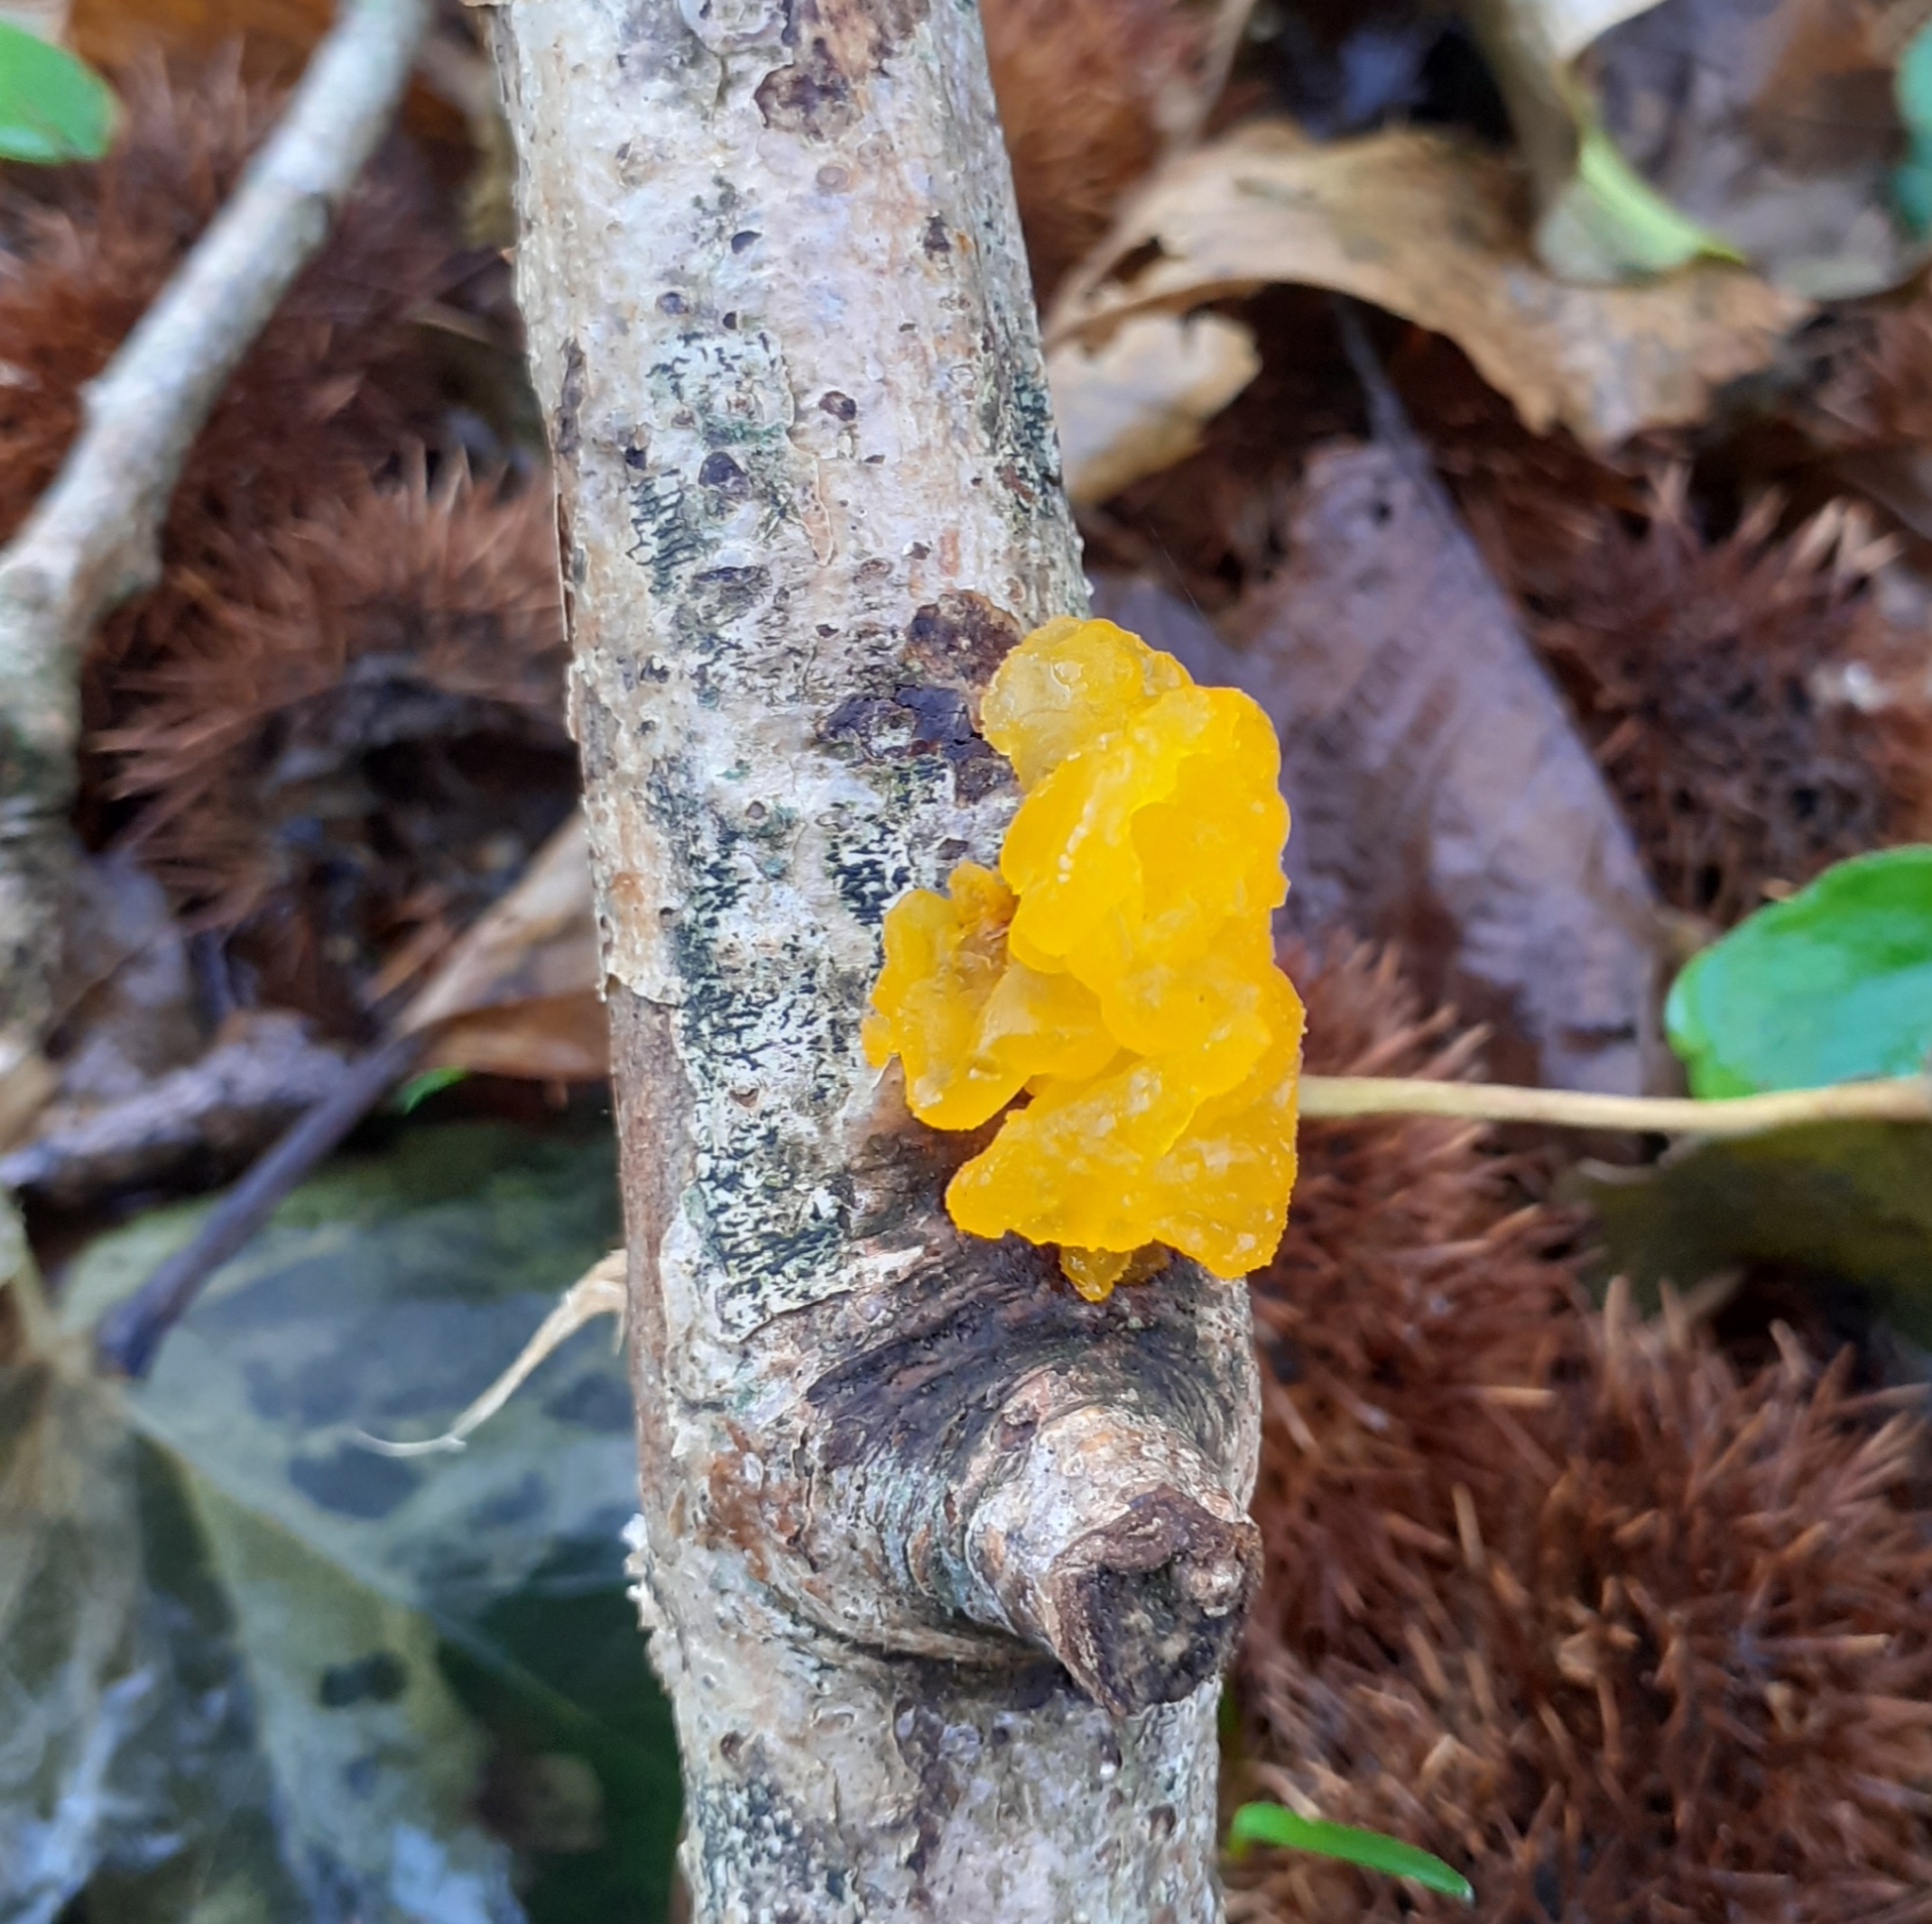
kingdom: Fungi
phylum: Basidiomycota
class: Tremellomycetes
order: Tremellales
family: Tremellaceae
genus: Tremella
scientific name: Tremella mesenterica
